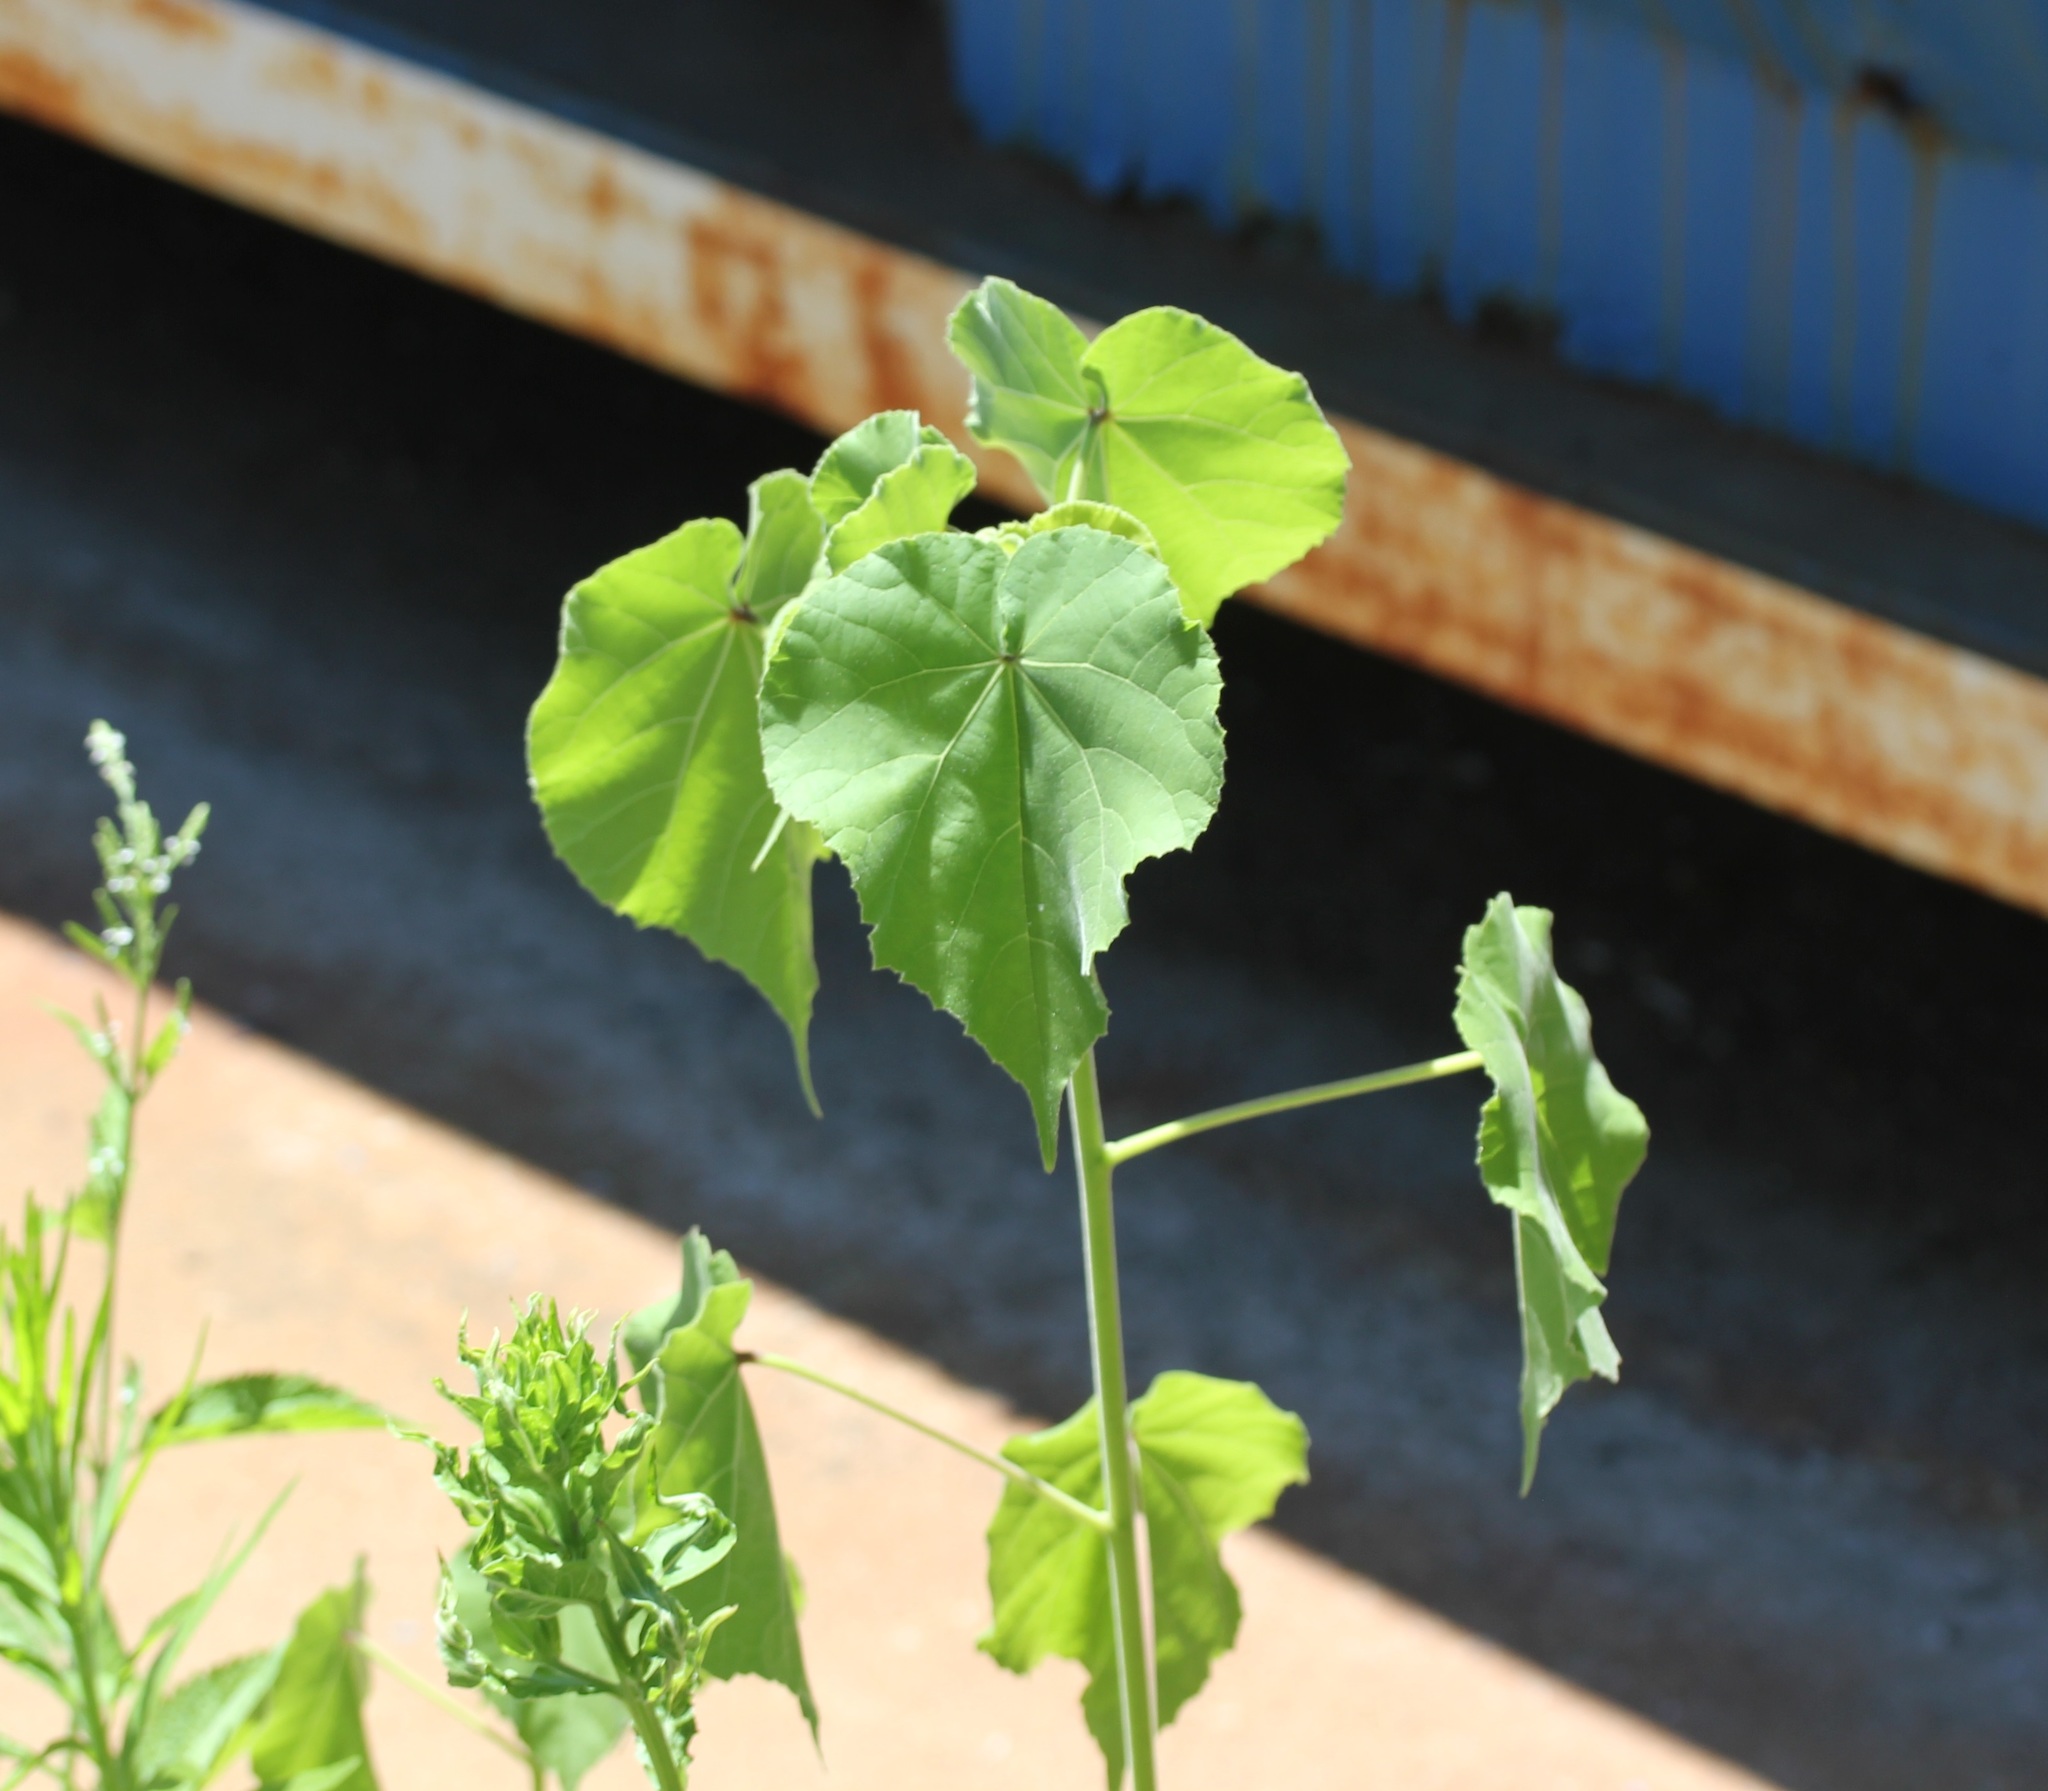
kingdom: Plantae
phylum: Tracheophyta
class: Magnoliopsida
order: Malvales
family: Malvaceae
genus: Abutilon
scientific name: Abutilon theophrasti
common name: Velvetleaf
